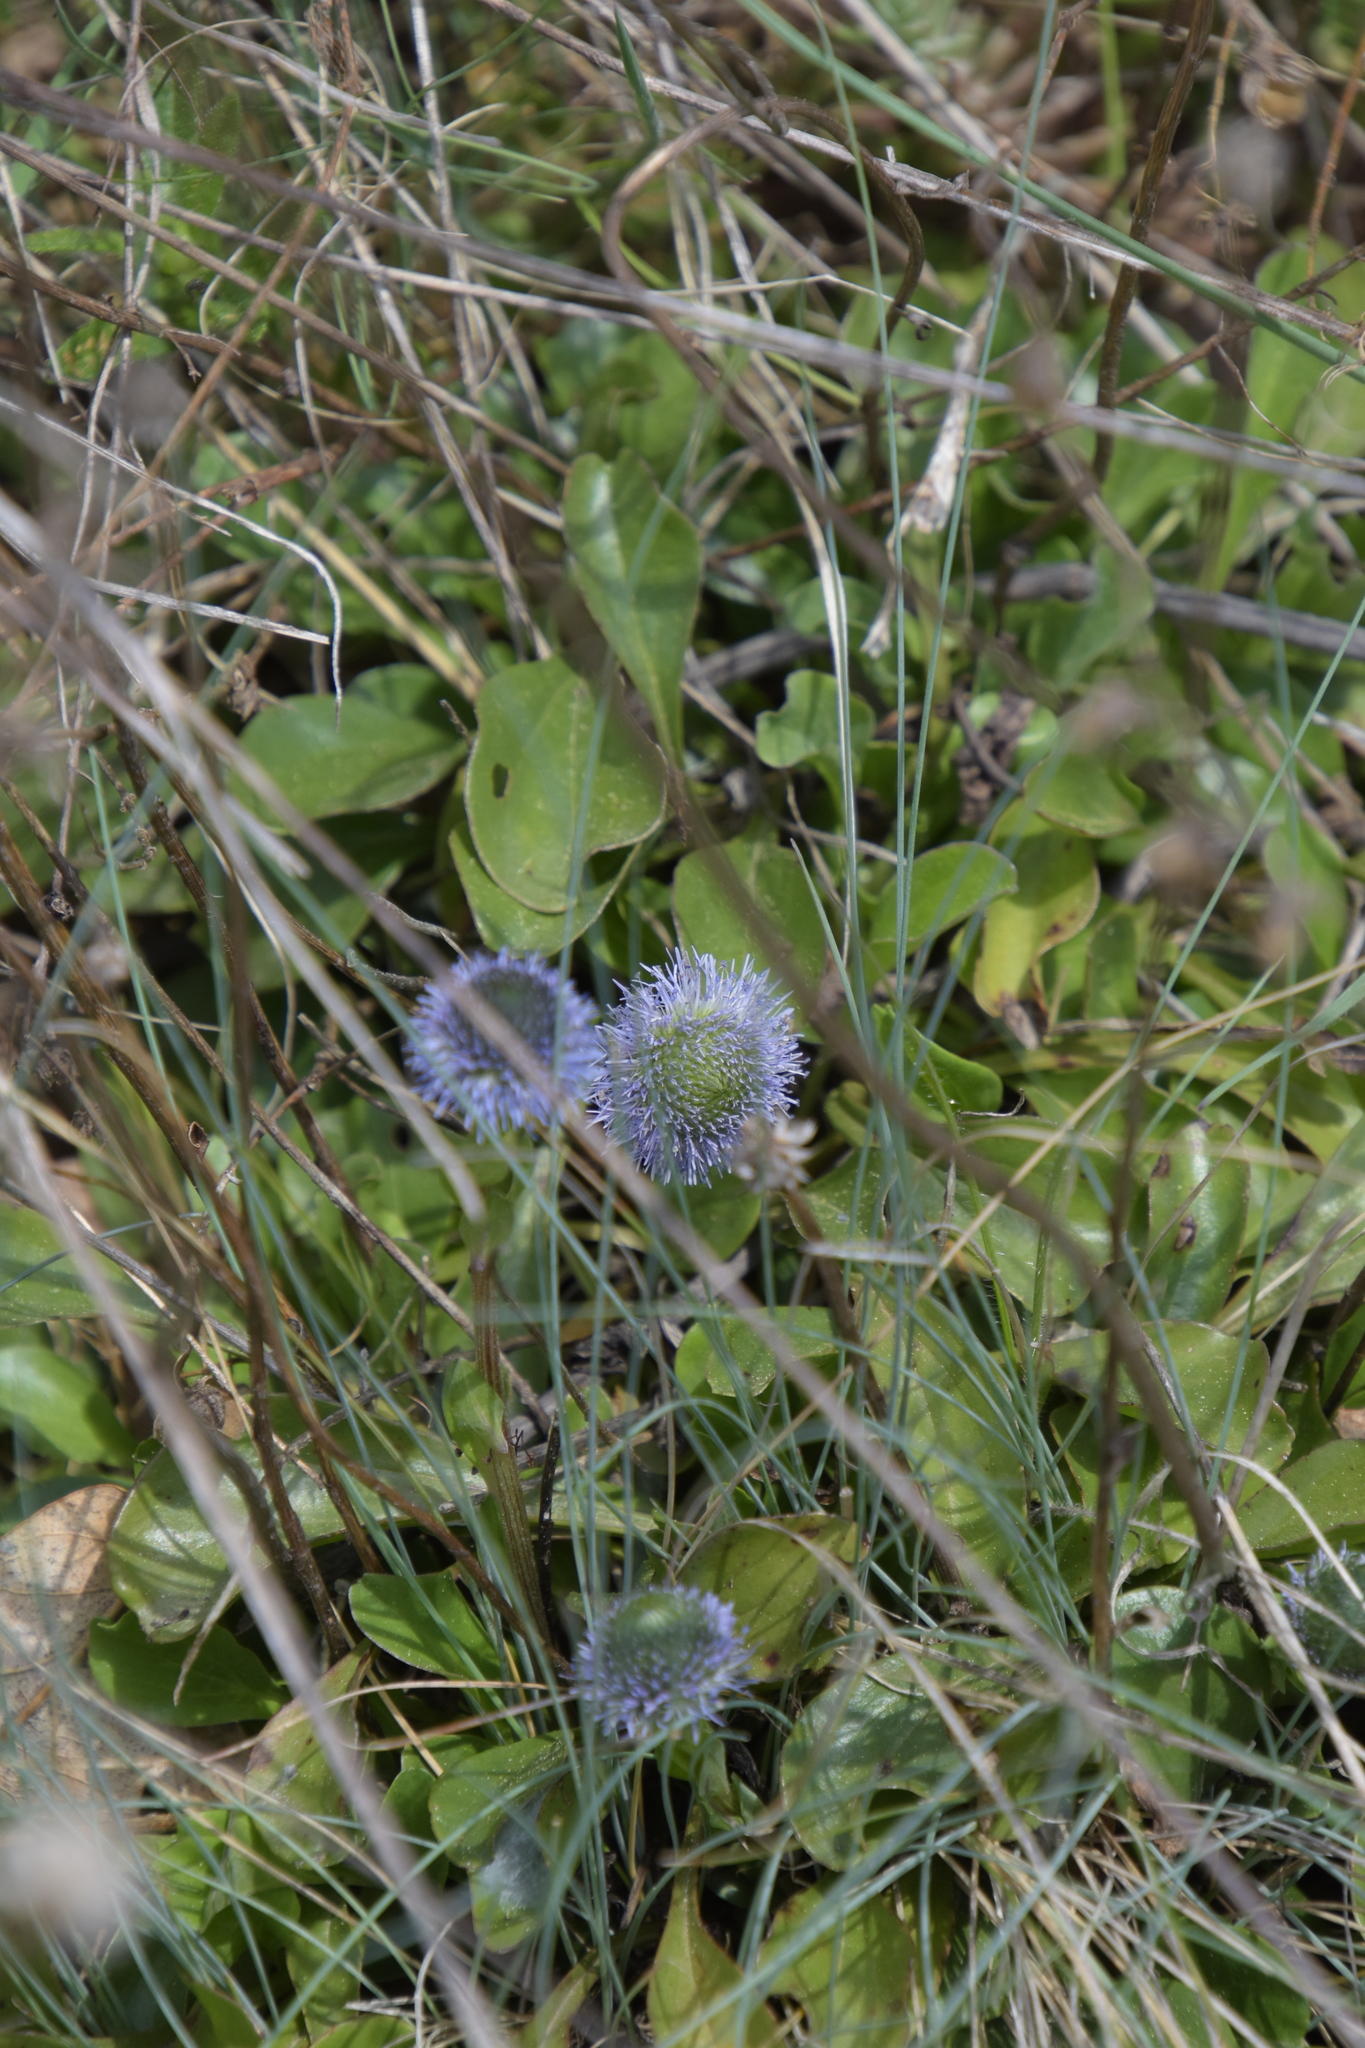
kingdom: Plantae
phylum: Tracheophyta
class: Magnoliopsida
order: Lamiales
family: Plantaginaceae
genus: Globularia
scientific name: Globularia bisnagarica
